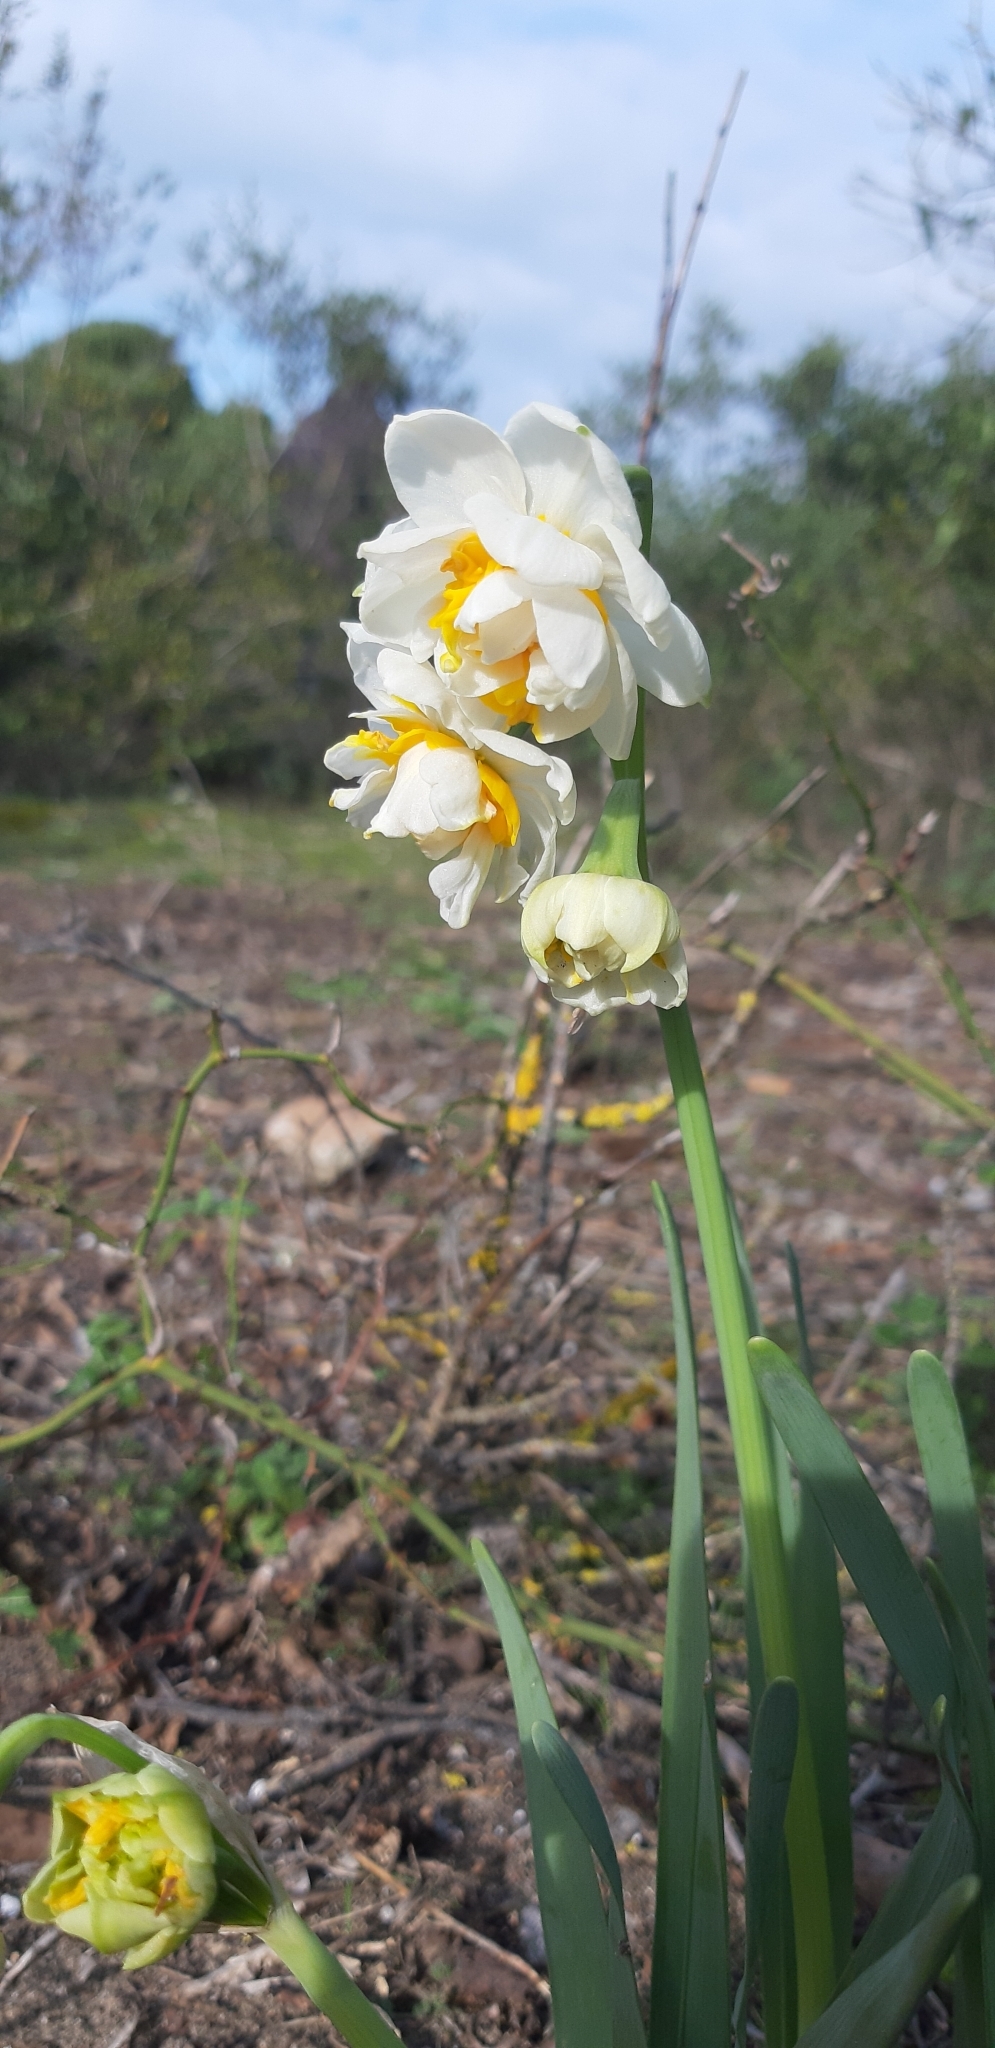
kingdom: Plantae
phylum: Tracheophyta
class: Liliopsida
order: Asparagales
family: Amaryllidaceae
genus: Narcissus
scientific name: Narcissus tazetta
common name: Bunch-flowered daffodil
